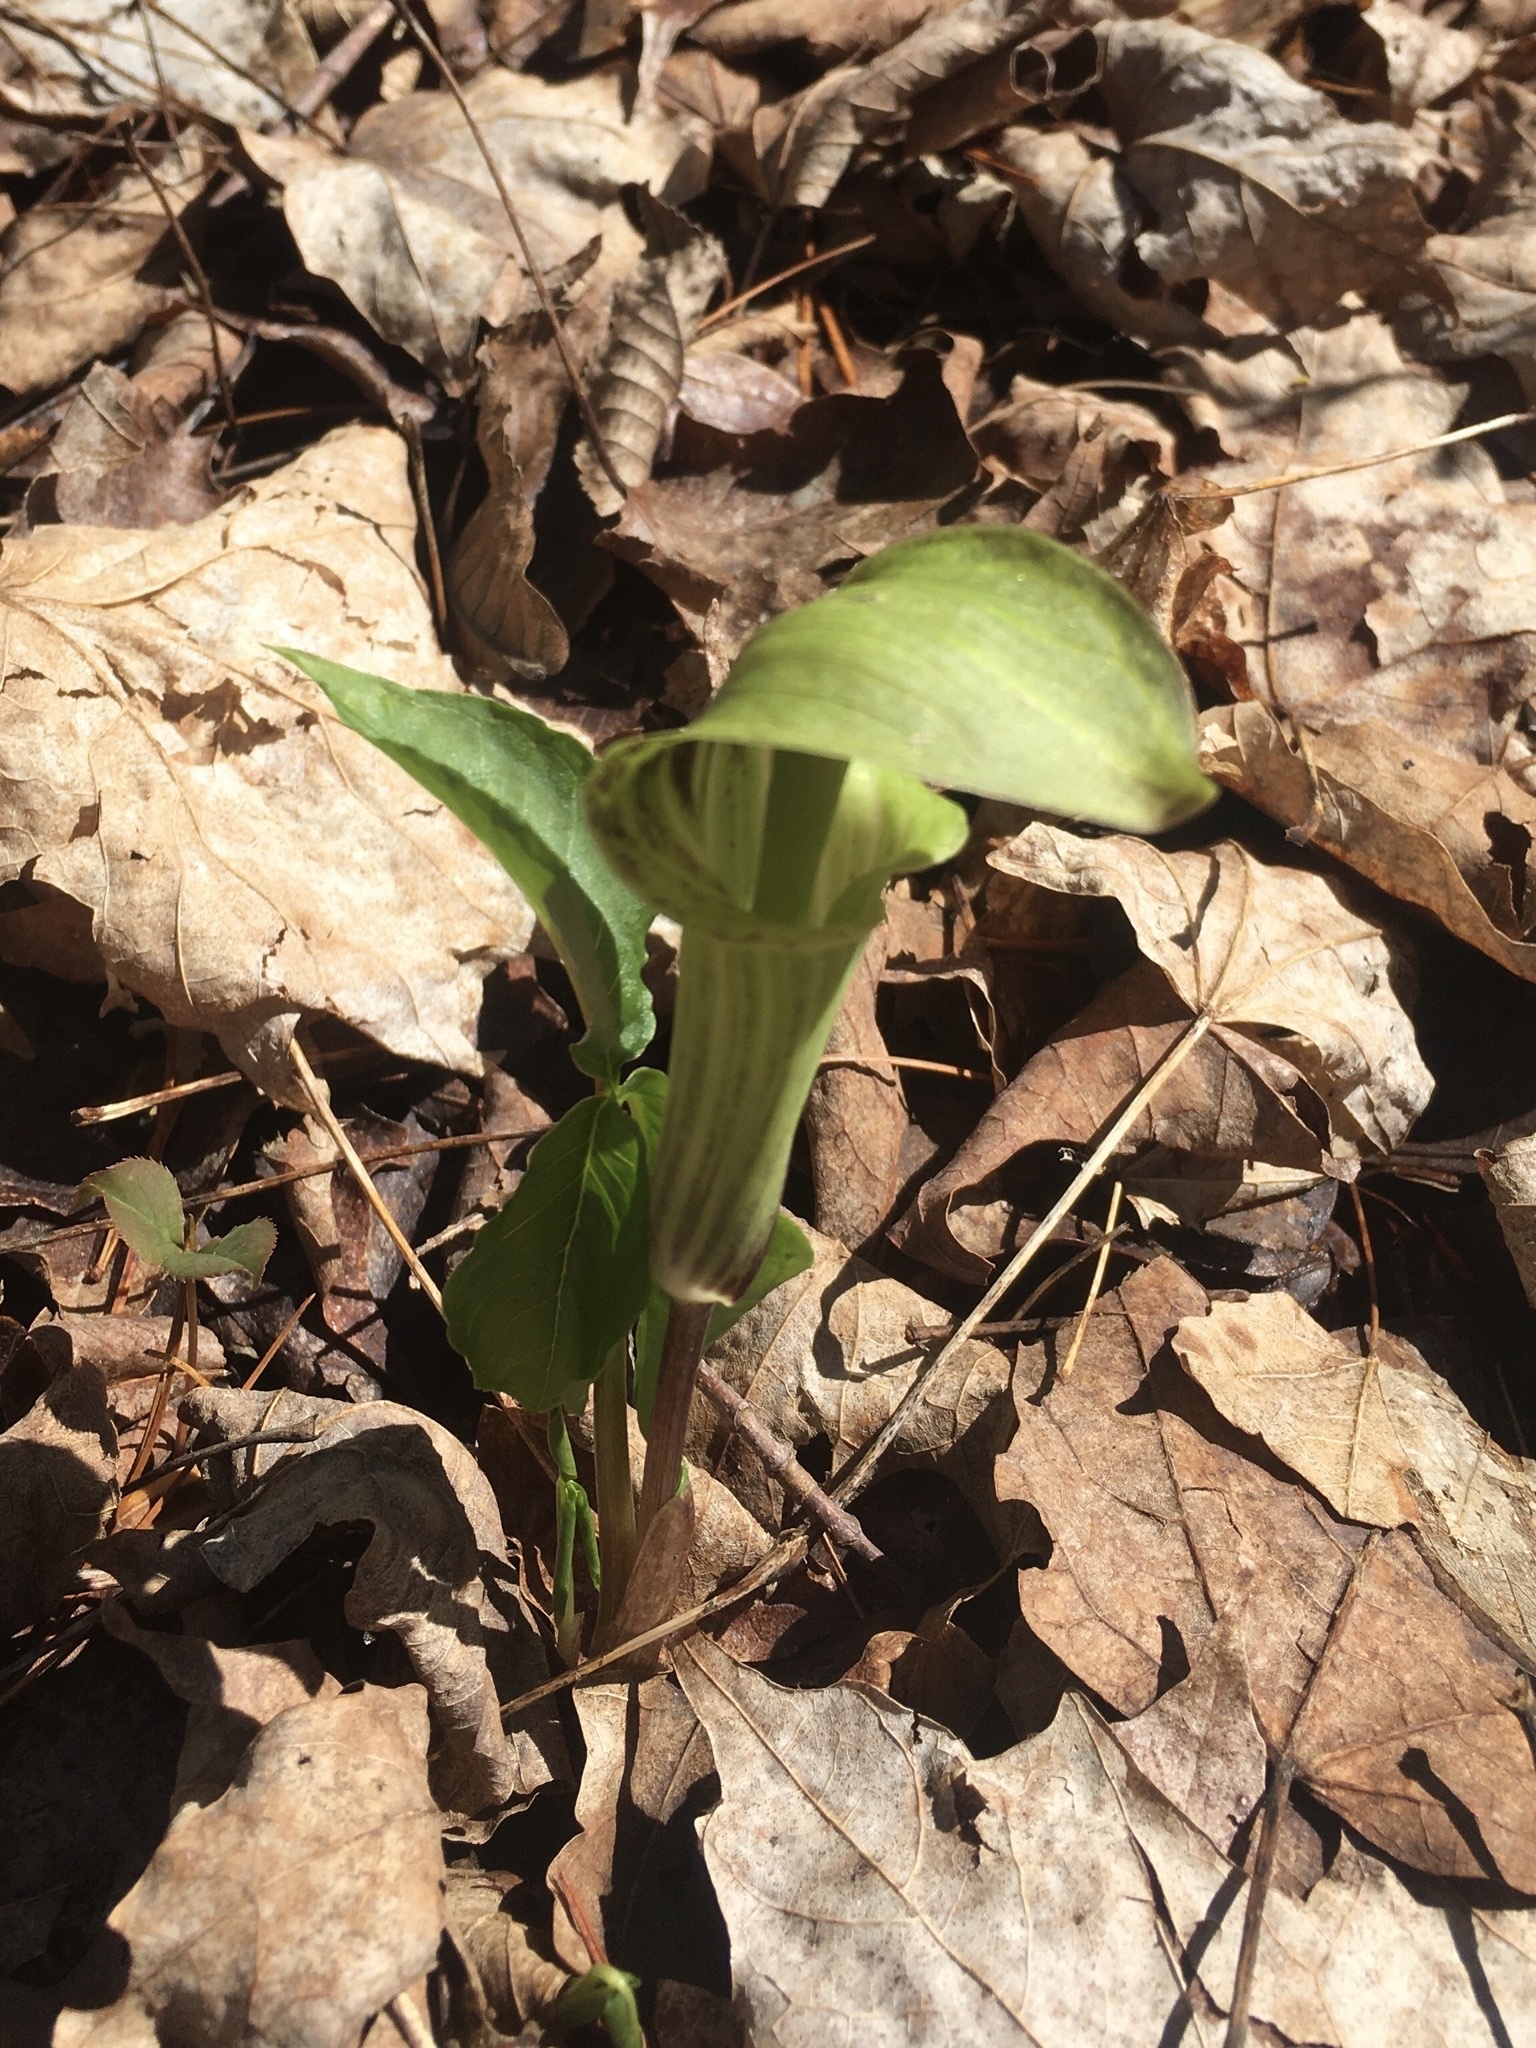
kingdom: Plantae
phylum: Tracheophyta
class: Liliopsida
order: Alismatales
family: Araceae
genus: Arisaema
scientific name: Arisaema triphyllum
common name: Jack-in-the-pulpit
